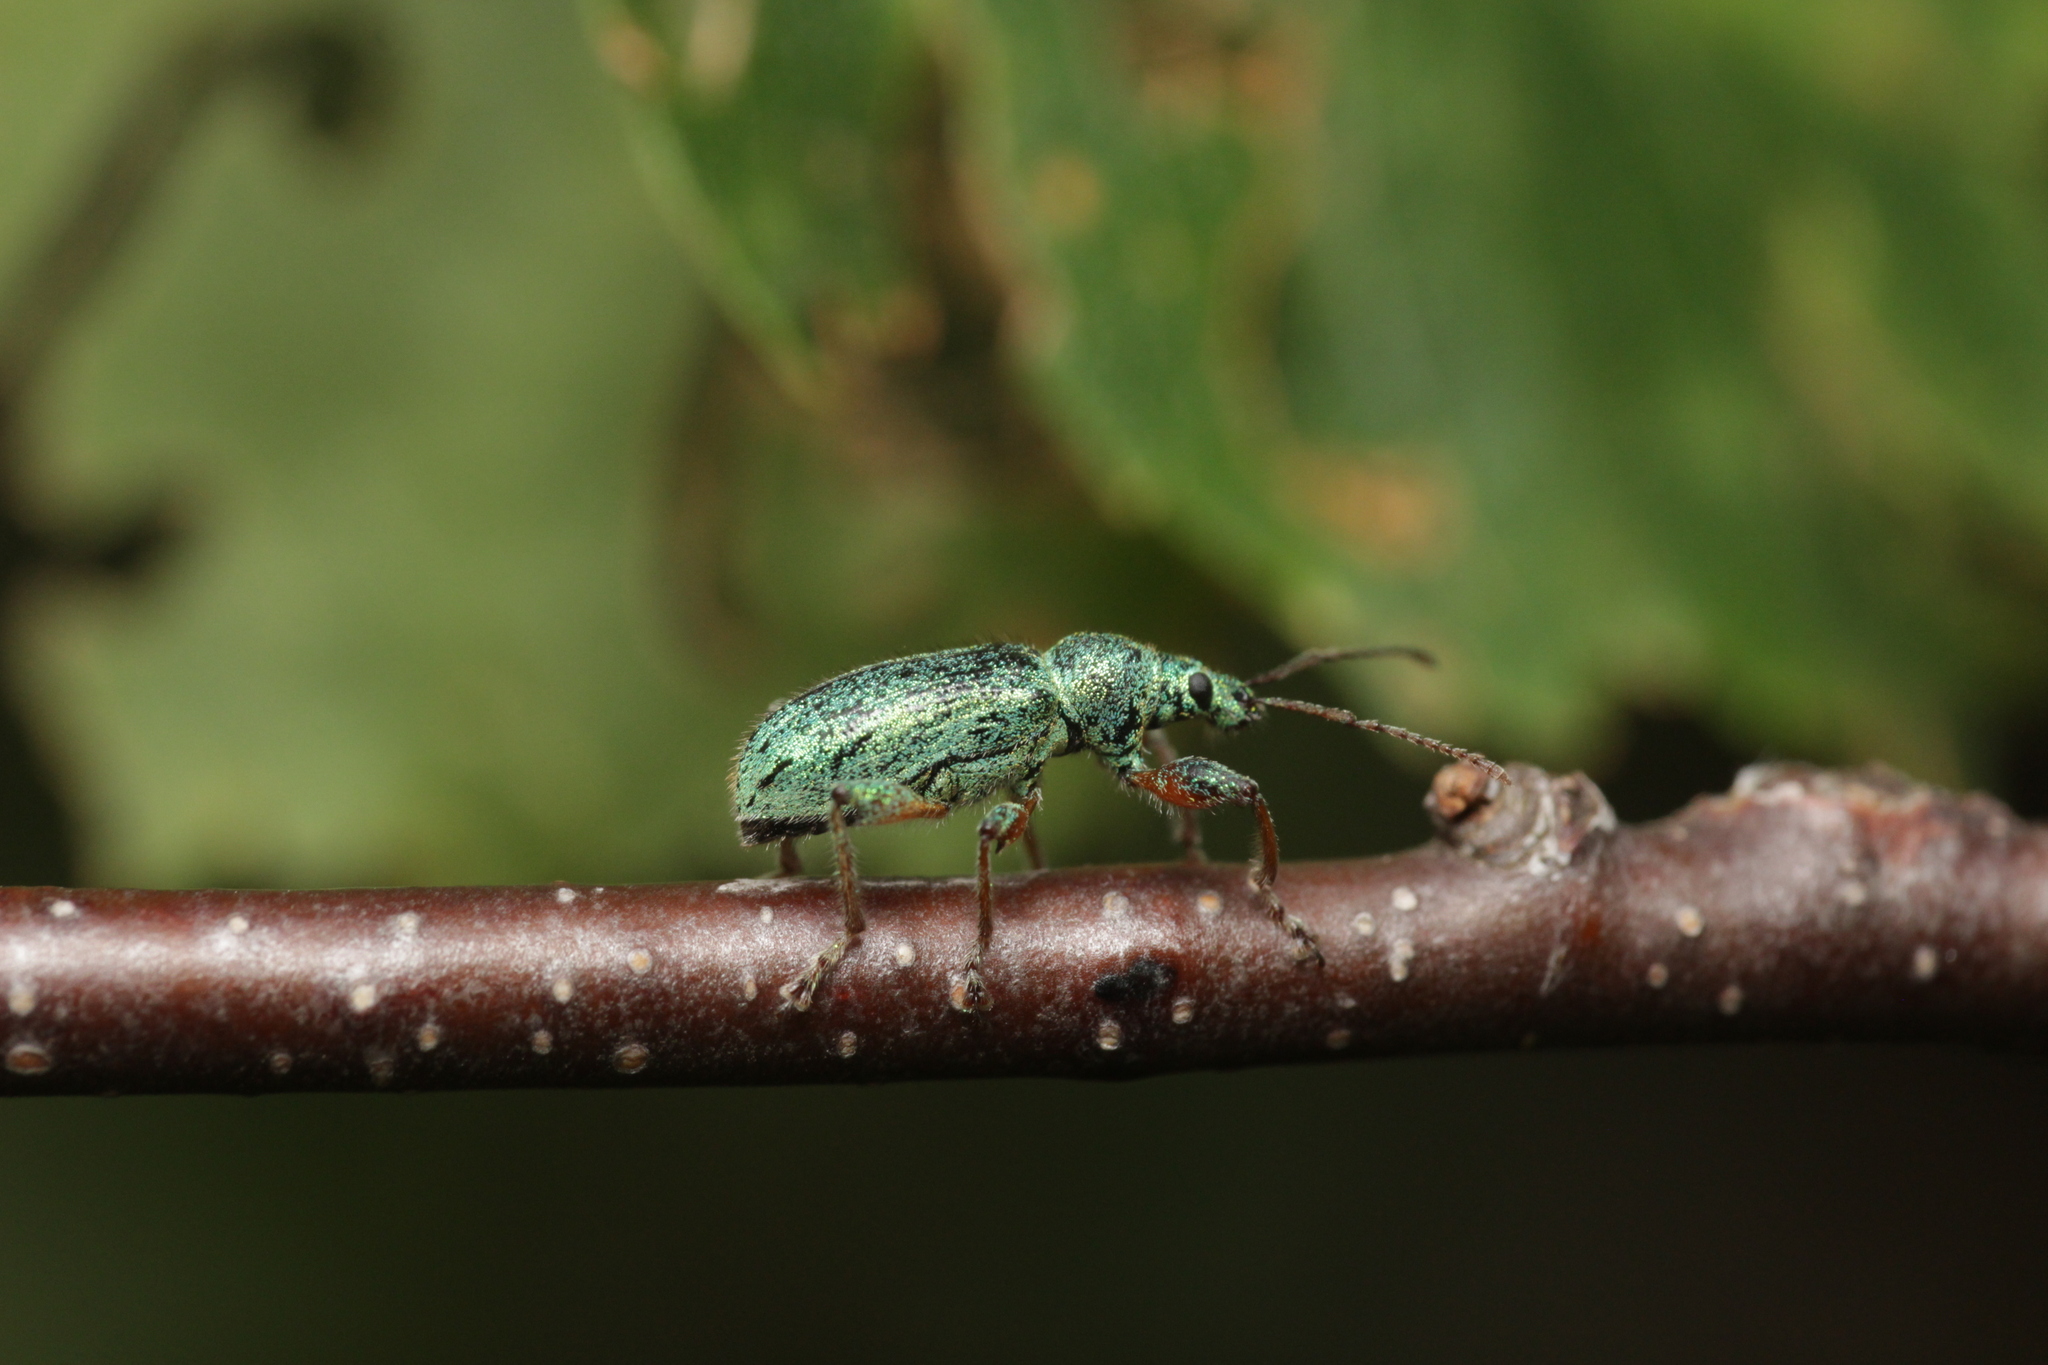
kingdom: Animalia
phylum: Arthropoda
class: Insecta
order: Coleoptera
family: Curculionidae
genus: Phyllobius
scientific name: Phyllobius arborator
